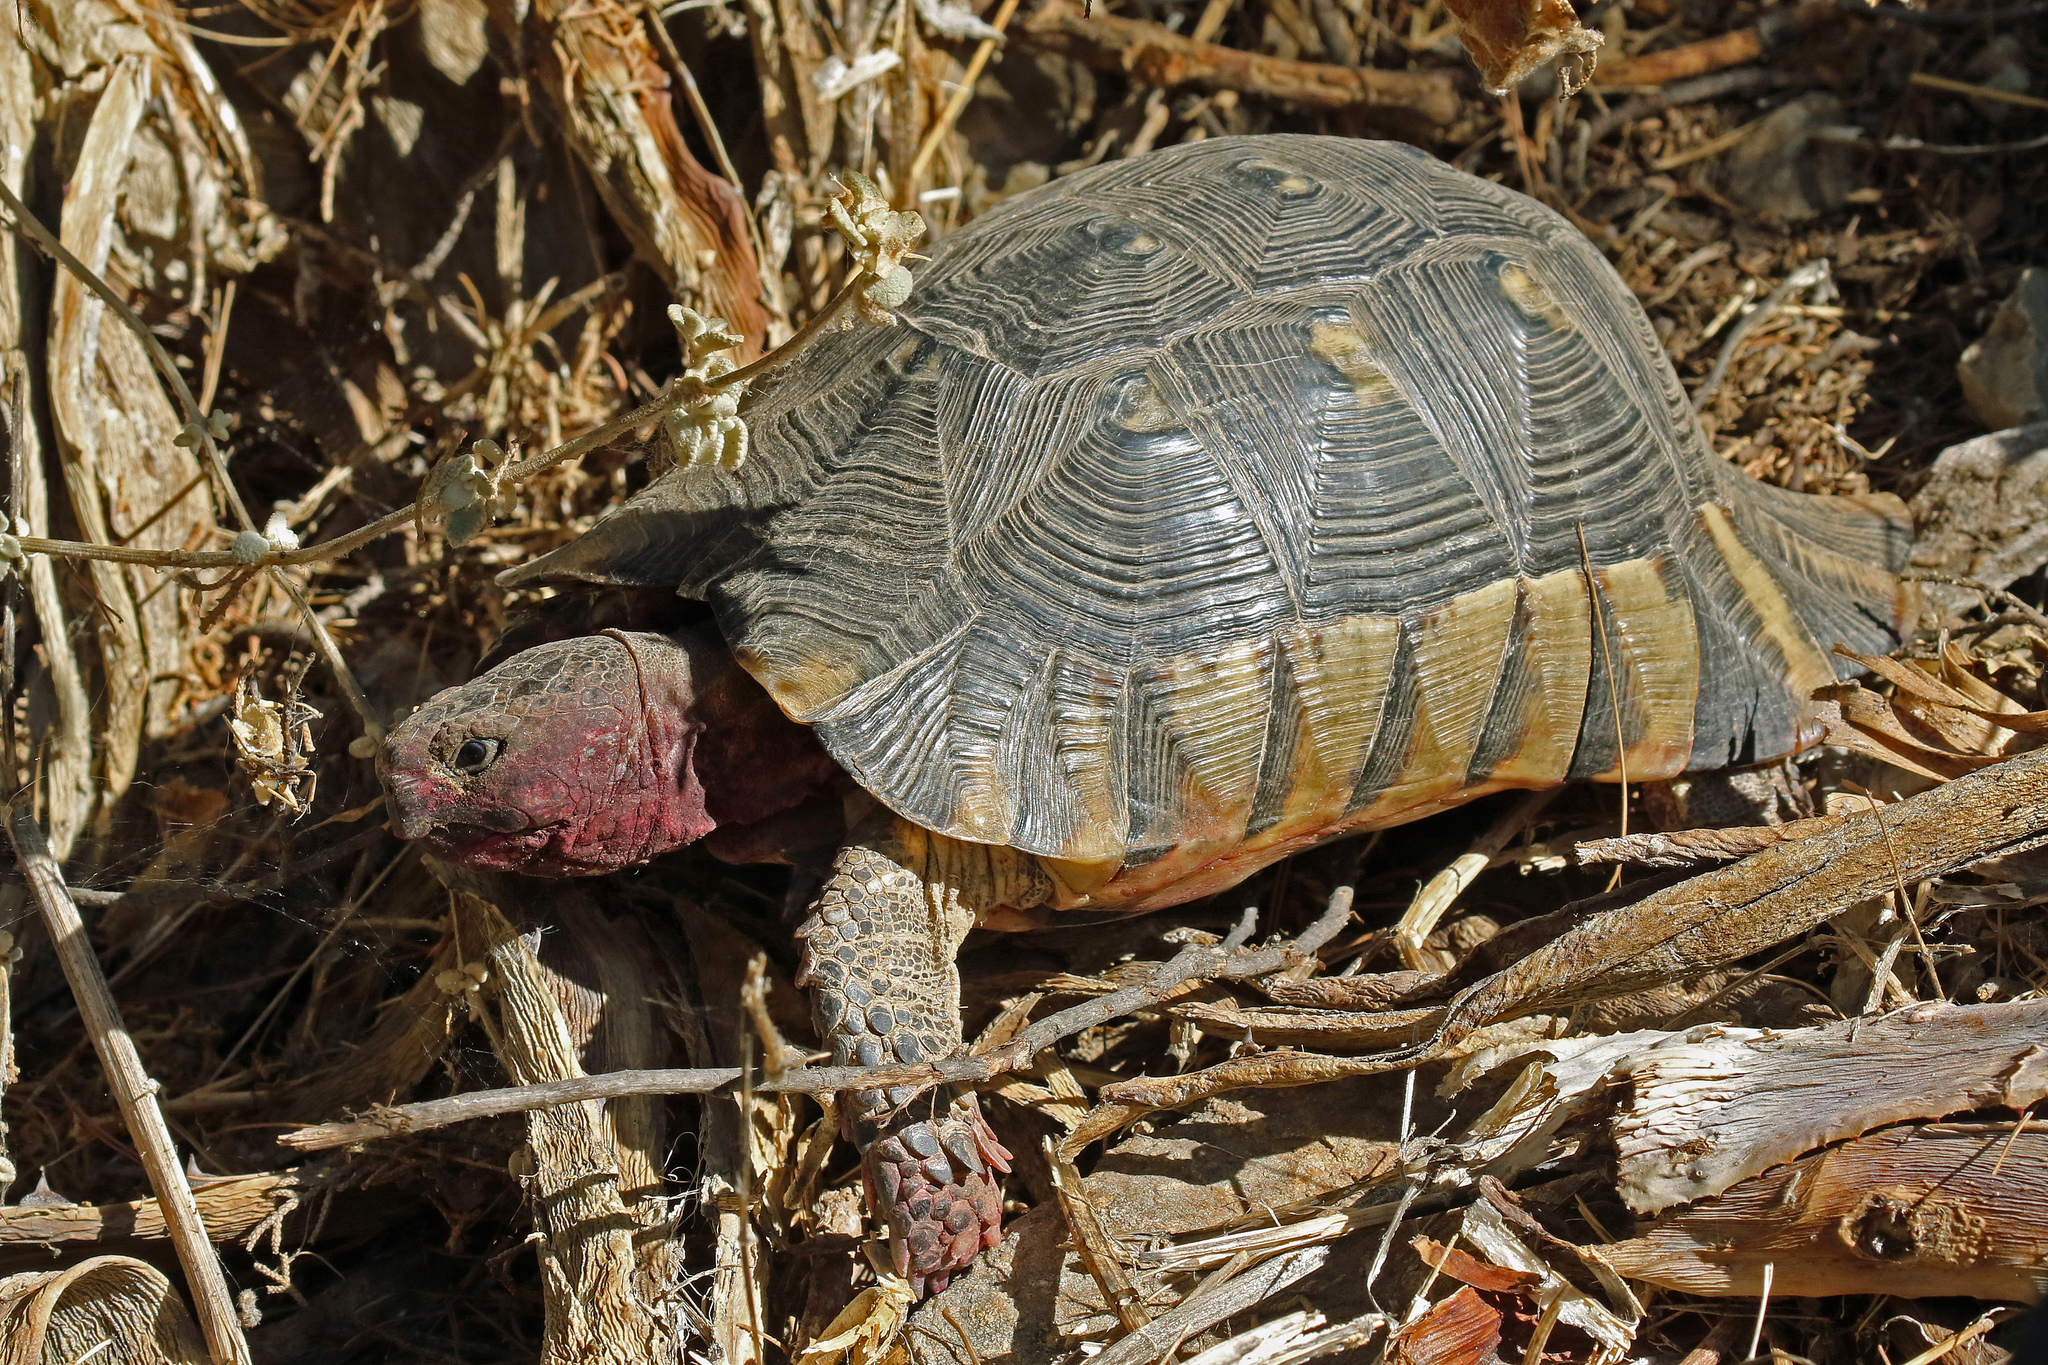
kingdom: Animalia
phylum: Chordata
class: Testudines
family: Testudinidae
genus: Testudo
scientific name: Testudo marginata
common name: Marginated tortoise
